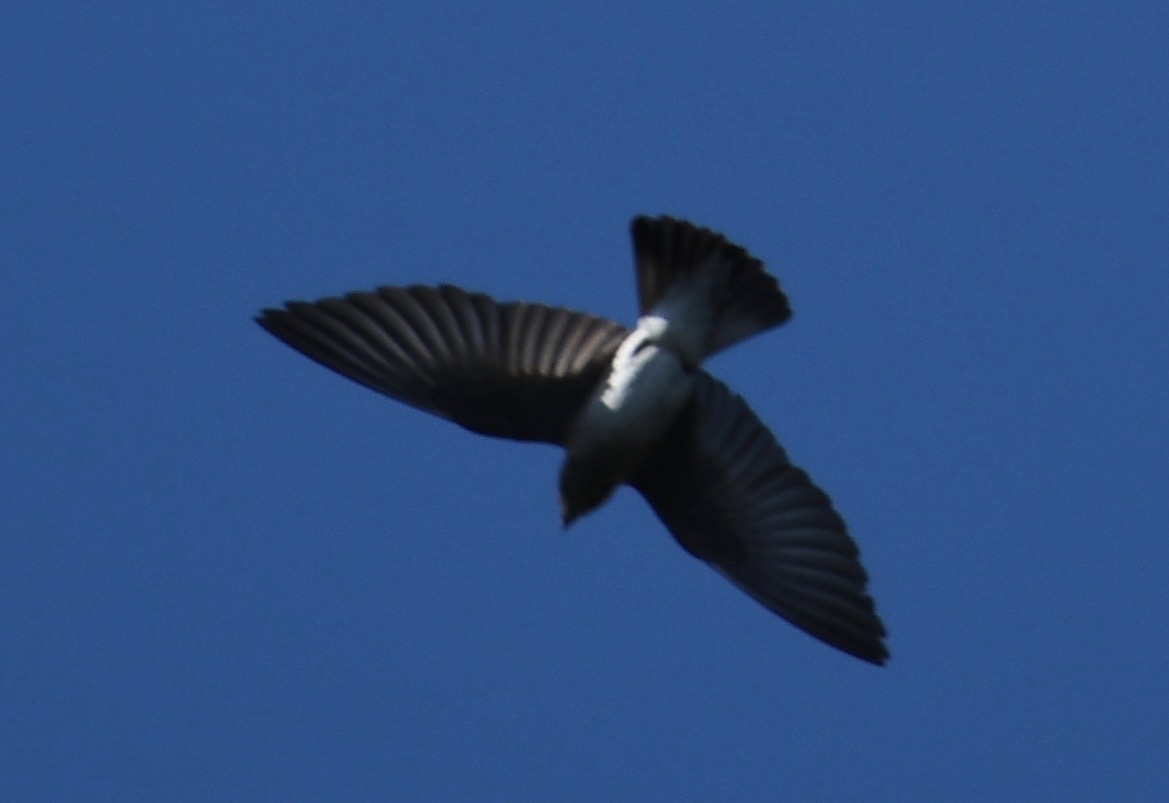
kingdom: Animalia
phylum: Chordata
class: Aves
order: Passeriformes
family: Hirundinidae
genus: Petrochelidon
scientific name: Petrochelidon pyrrhonota
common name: American cliff swallow
